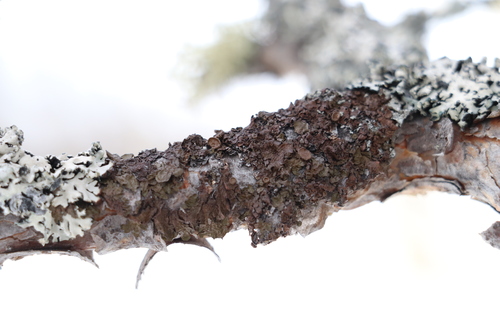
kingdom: Fungi
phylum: Ascomycota
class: Lecanoromycetes
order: Lecanorales
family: Parmeliaceae
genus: Melanohalea
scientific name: Melanohalea olivacea
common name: Spotted camouflage lichen
